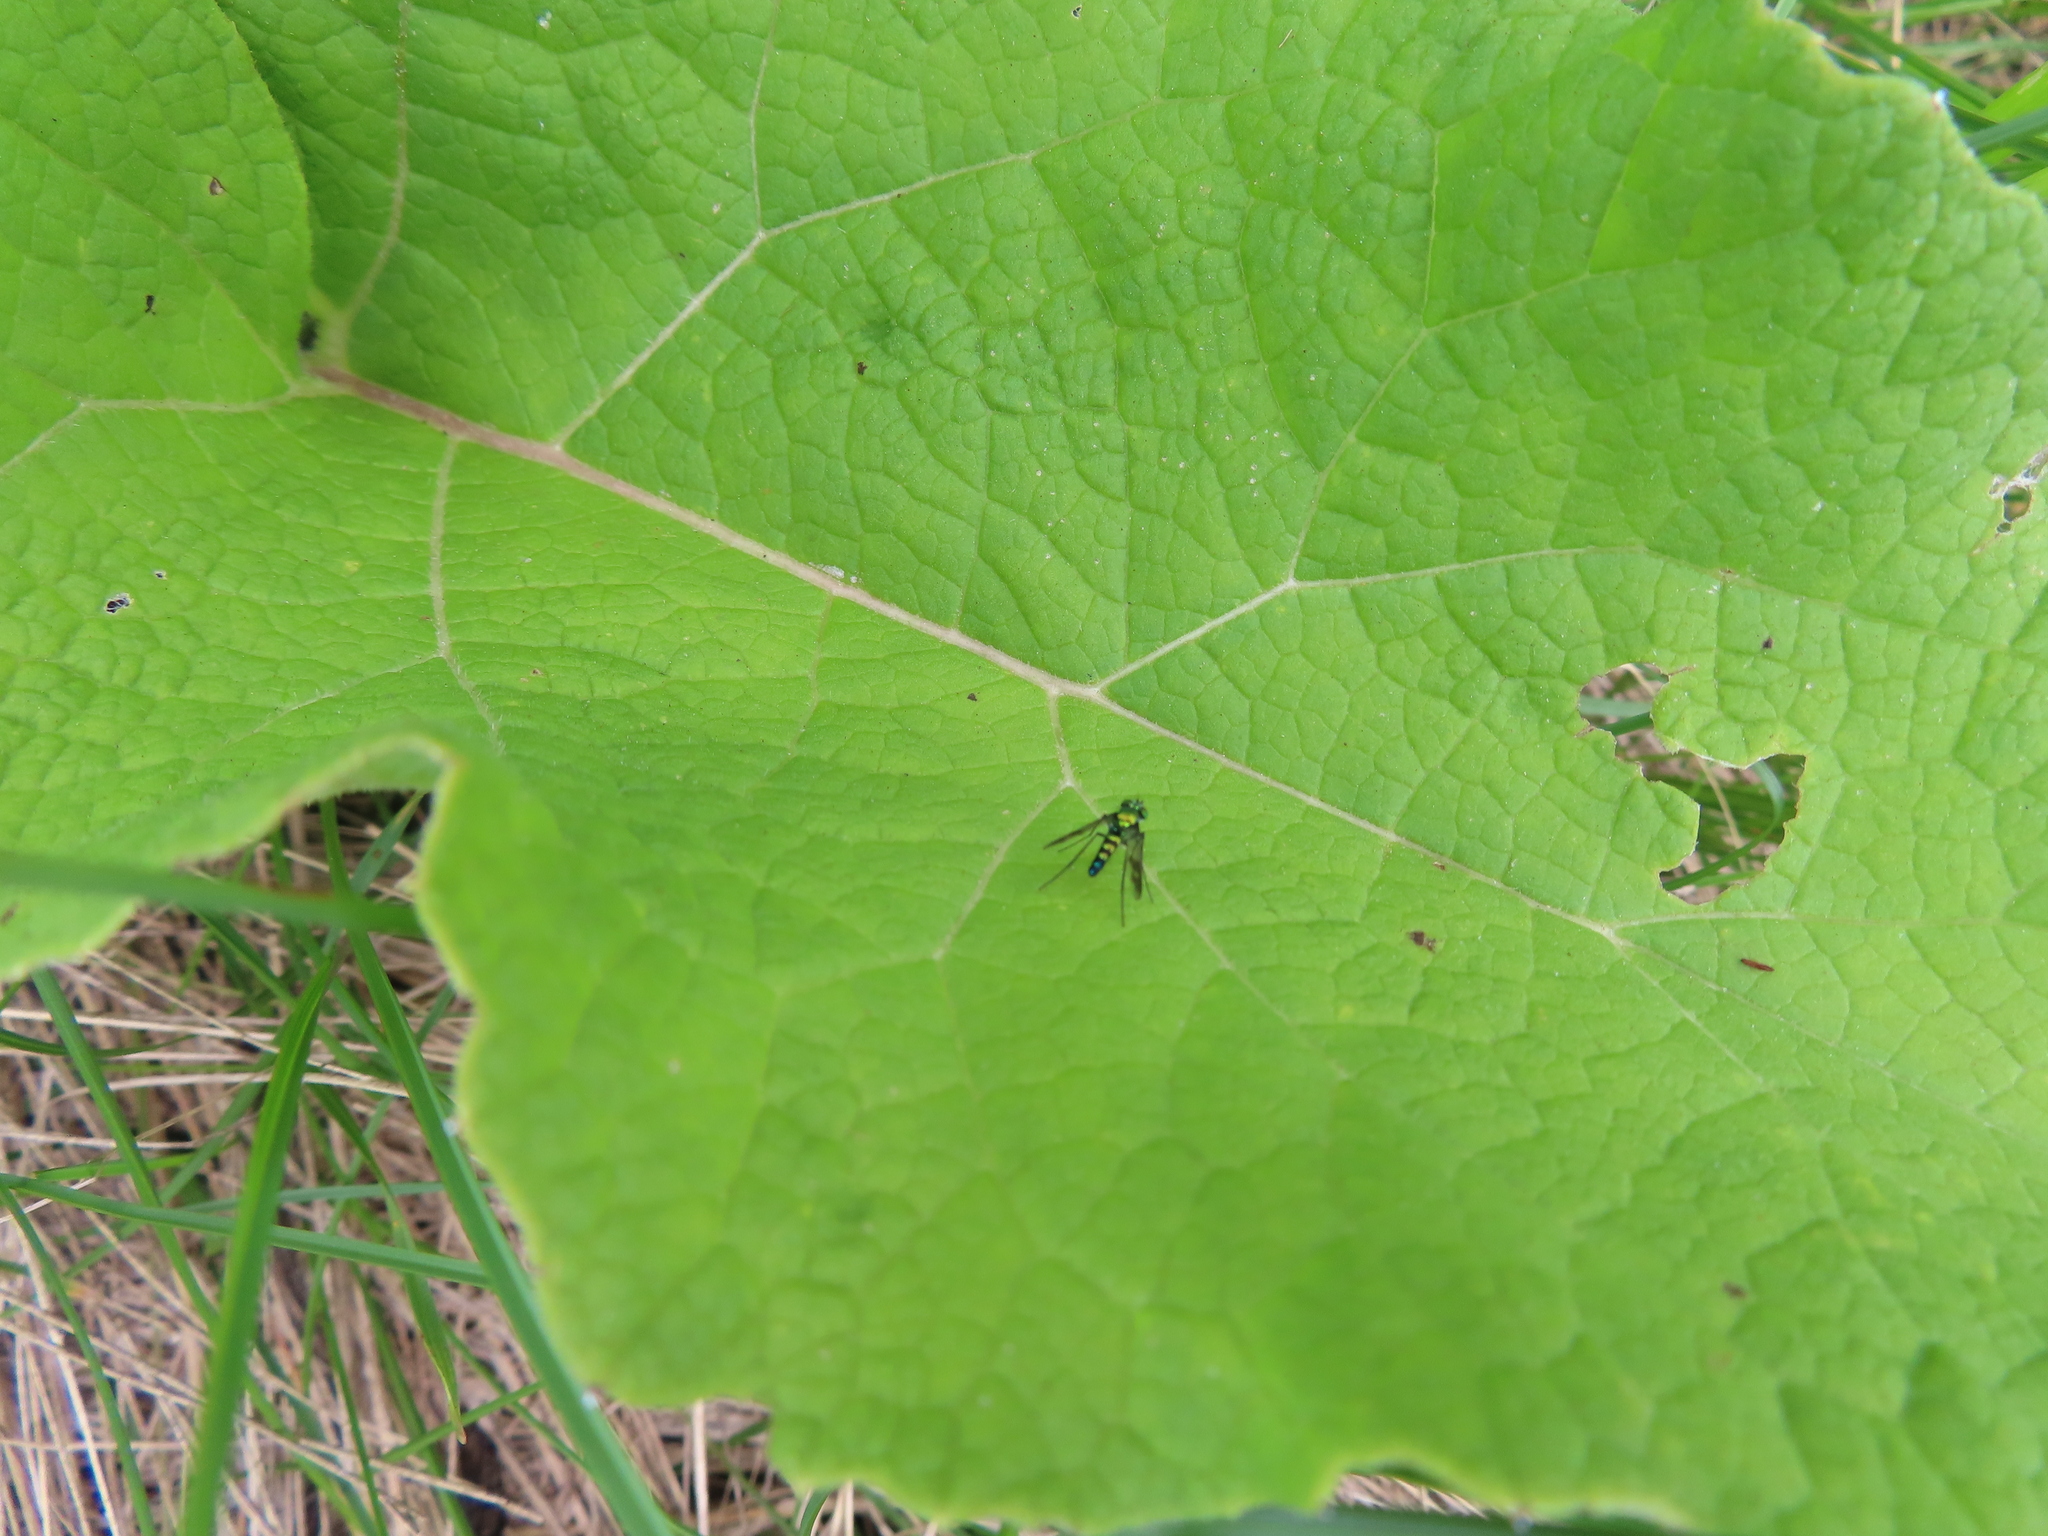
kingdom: Animalia
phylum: Arthropoda
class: Insecta
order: Diptera
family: Dolichopodidae
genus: Condylostylus
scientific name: Condylostylus patibulatus
